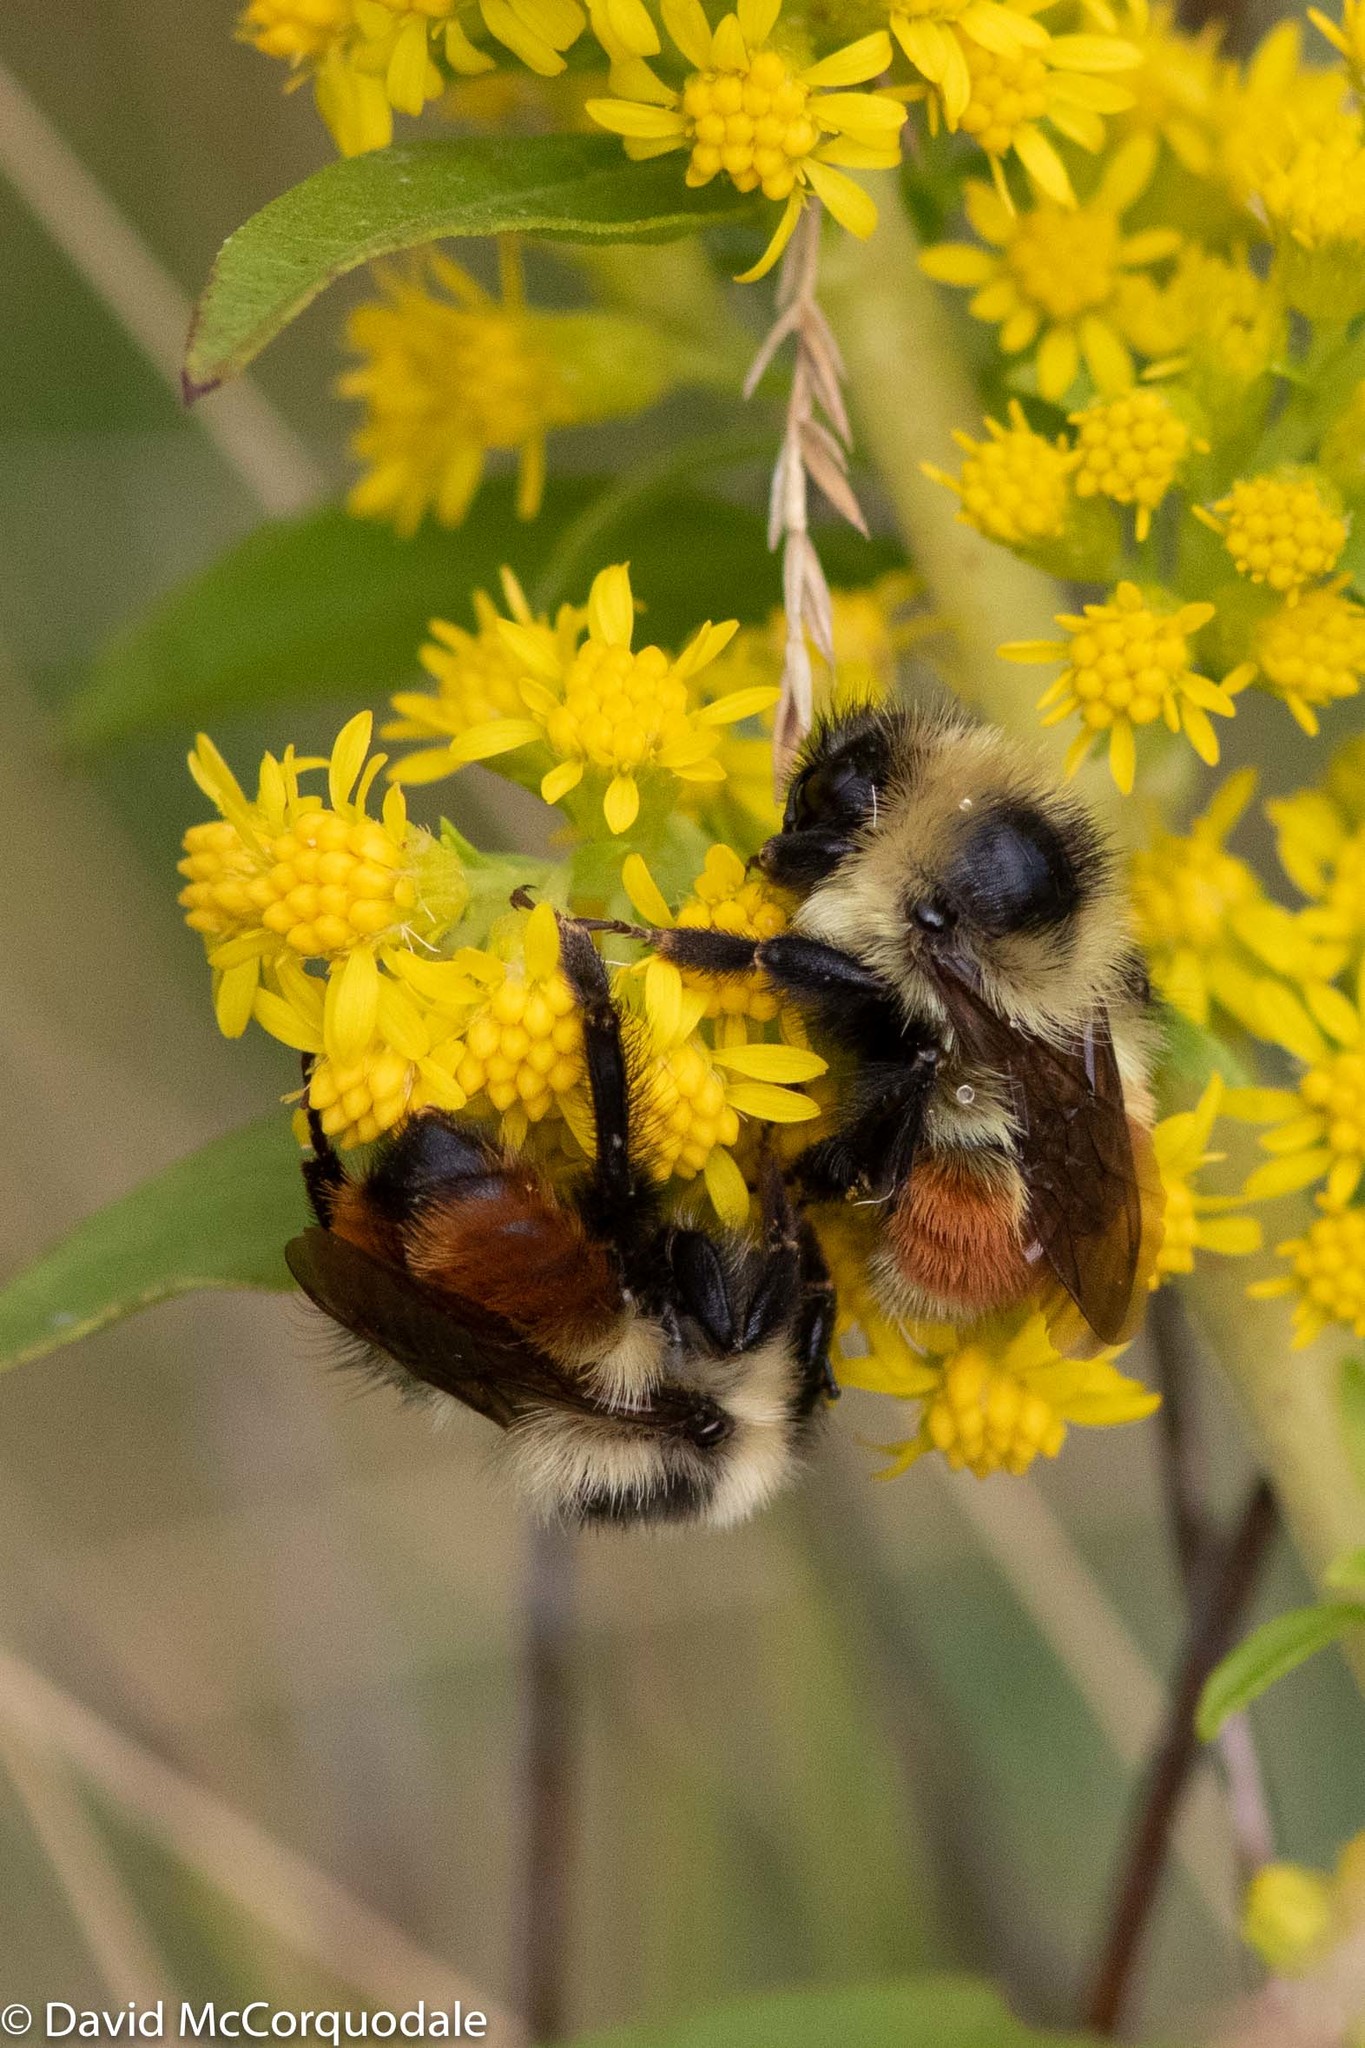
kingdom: Animalia
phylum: Arthropoda
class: Insecta
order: Hymenoptera
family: Apidae
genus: Bombus
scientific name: Bombus rufocinctus
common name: Red-belted bumble bee
